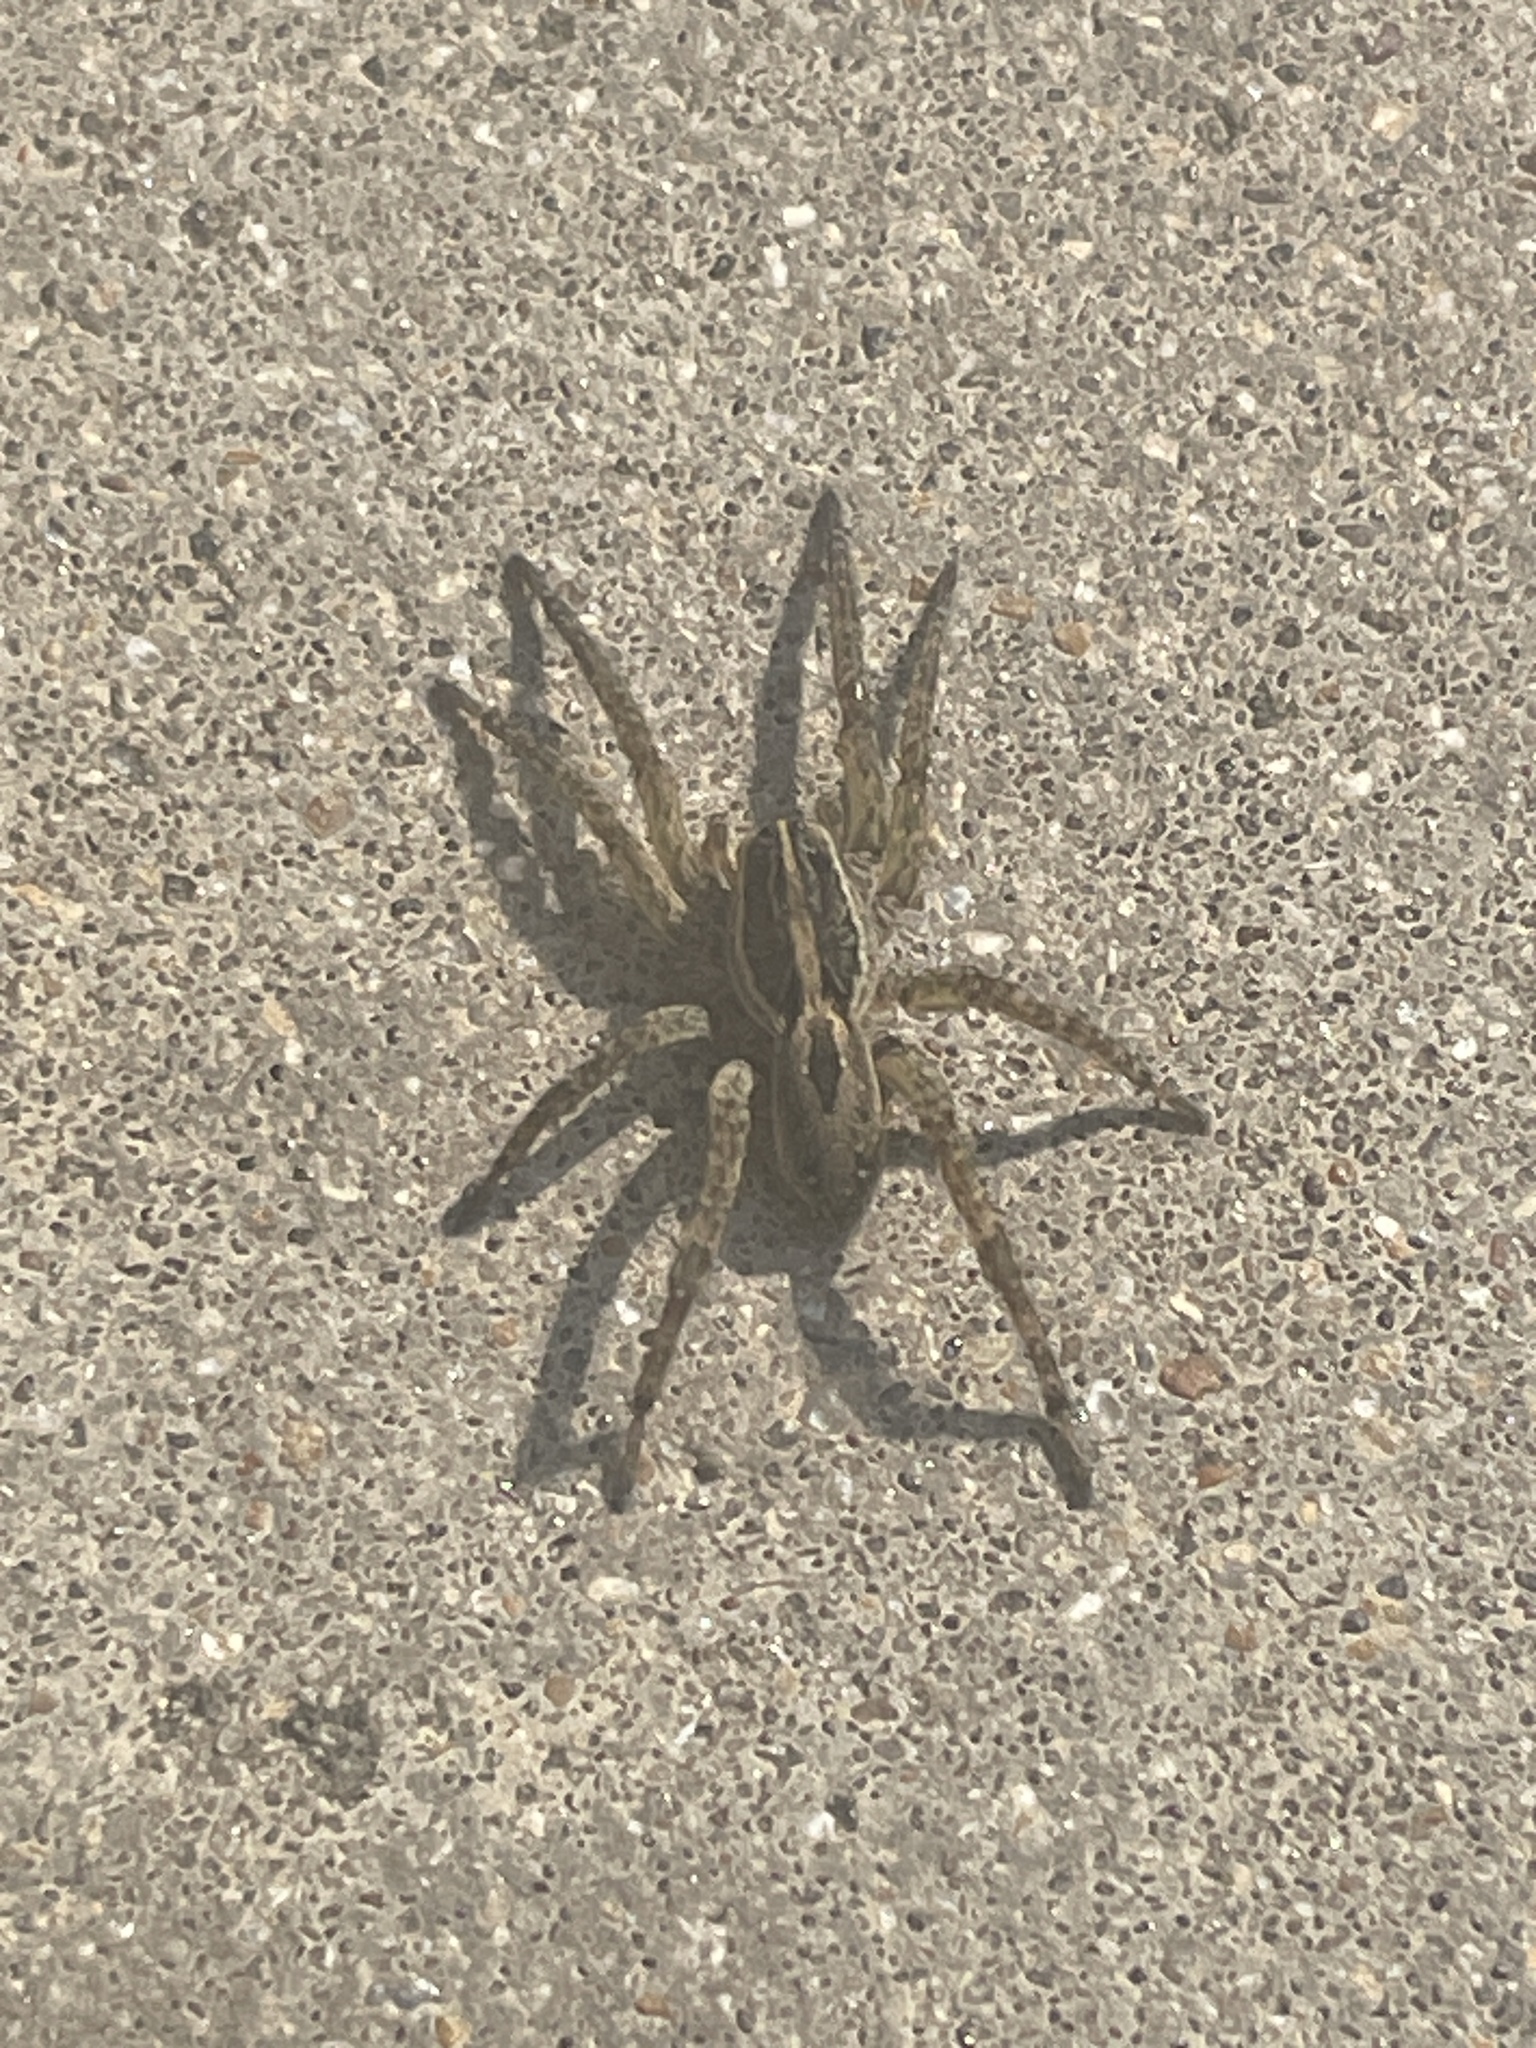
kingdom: Animalia
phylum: Arthropoda
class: Arachnida
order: Araneae
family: Lycosidae
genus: Tigrosa
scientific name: Tigrosa annexa
